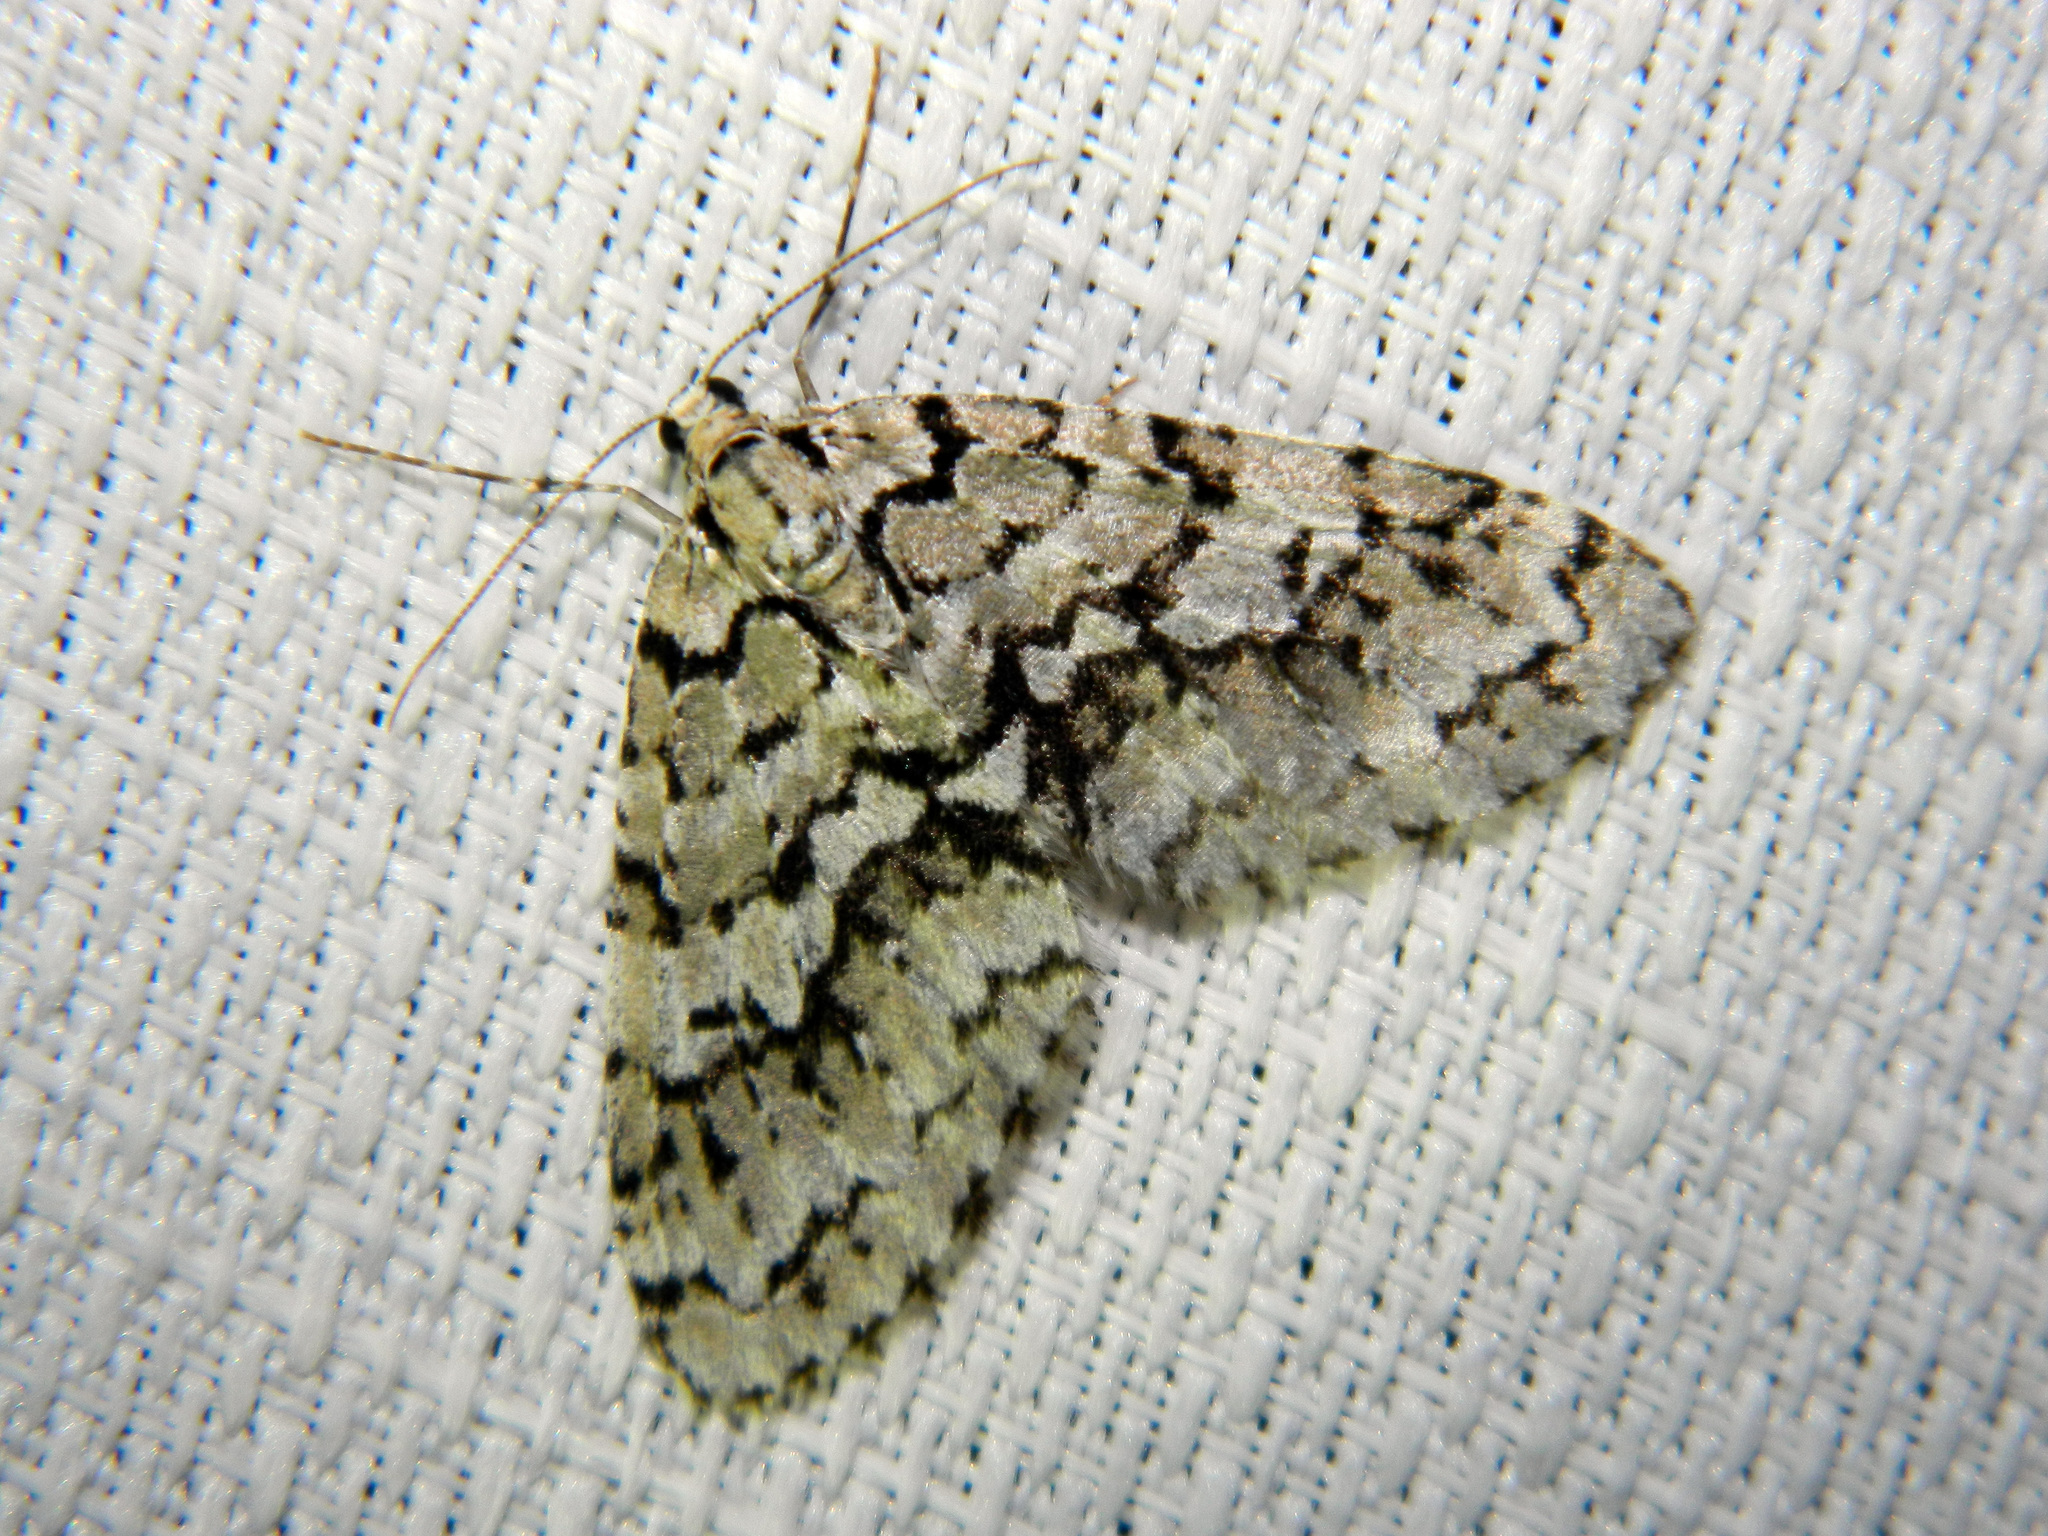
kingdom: Animalia
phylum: Arthropoda
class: Insecta
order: Lepidoptera
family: Geometridae
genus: Cladara
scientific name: Cladara atroliturata
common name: Scribbler
